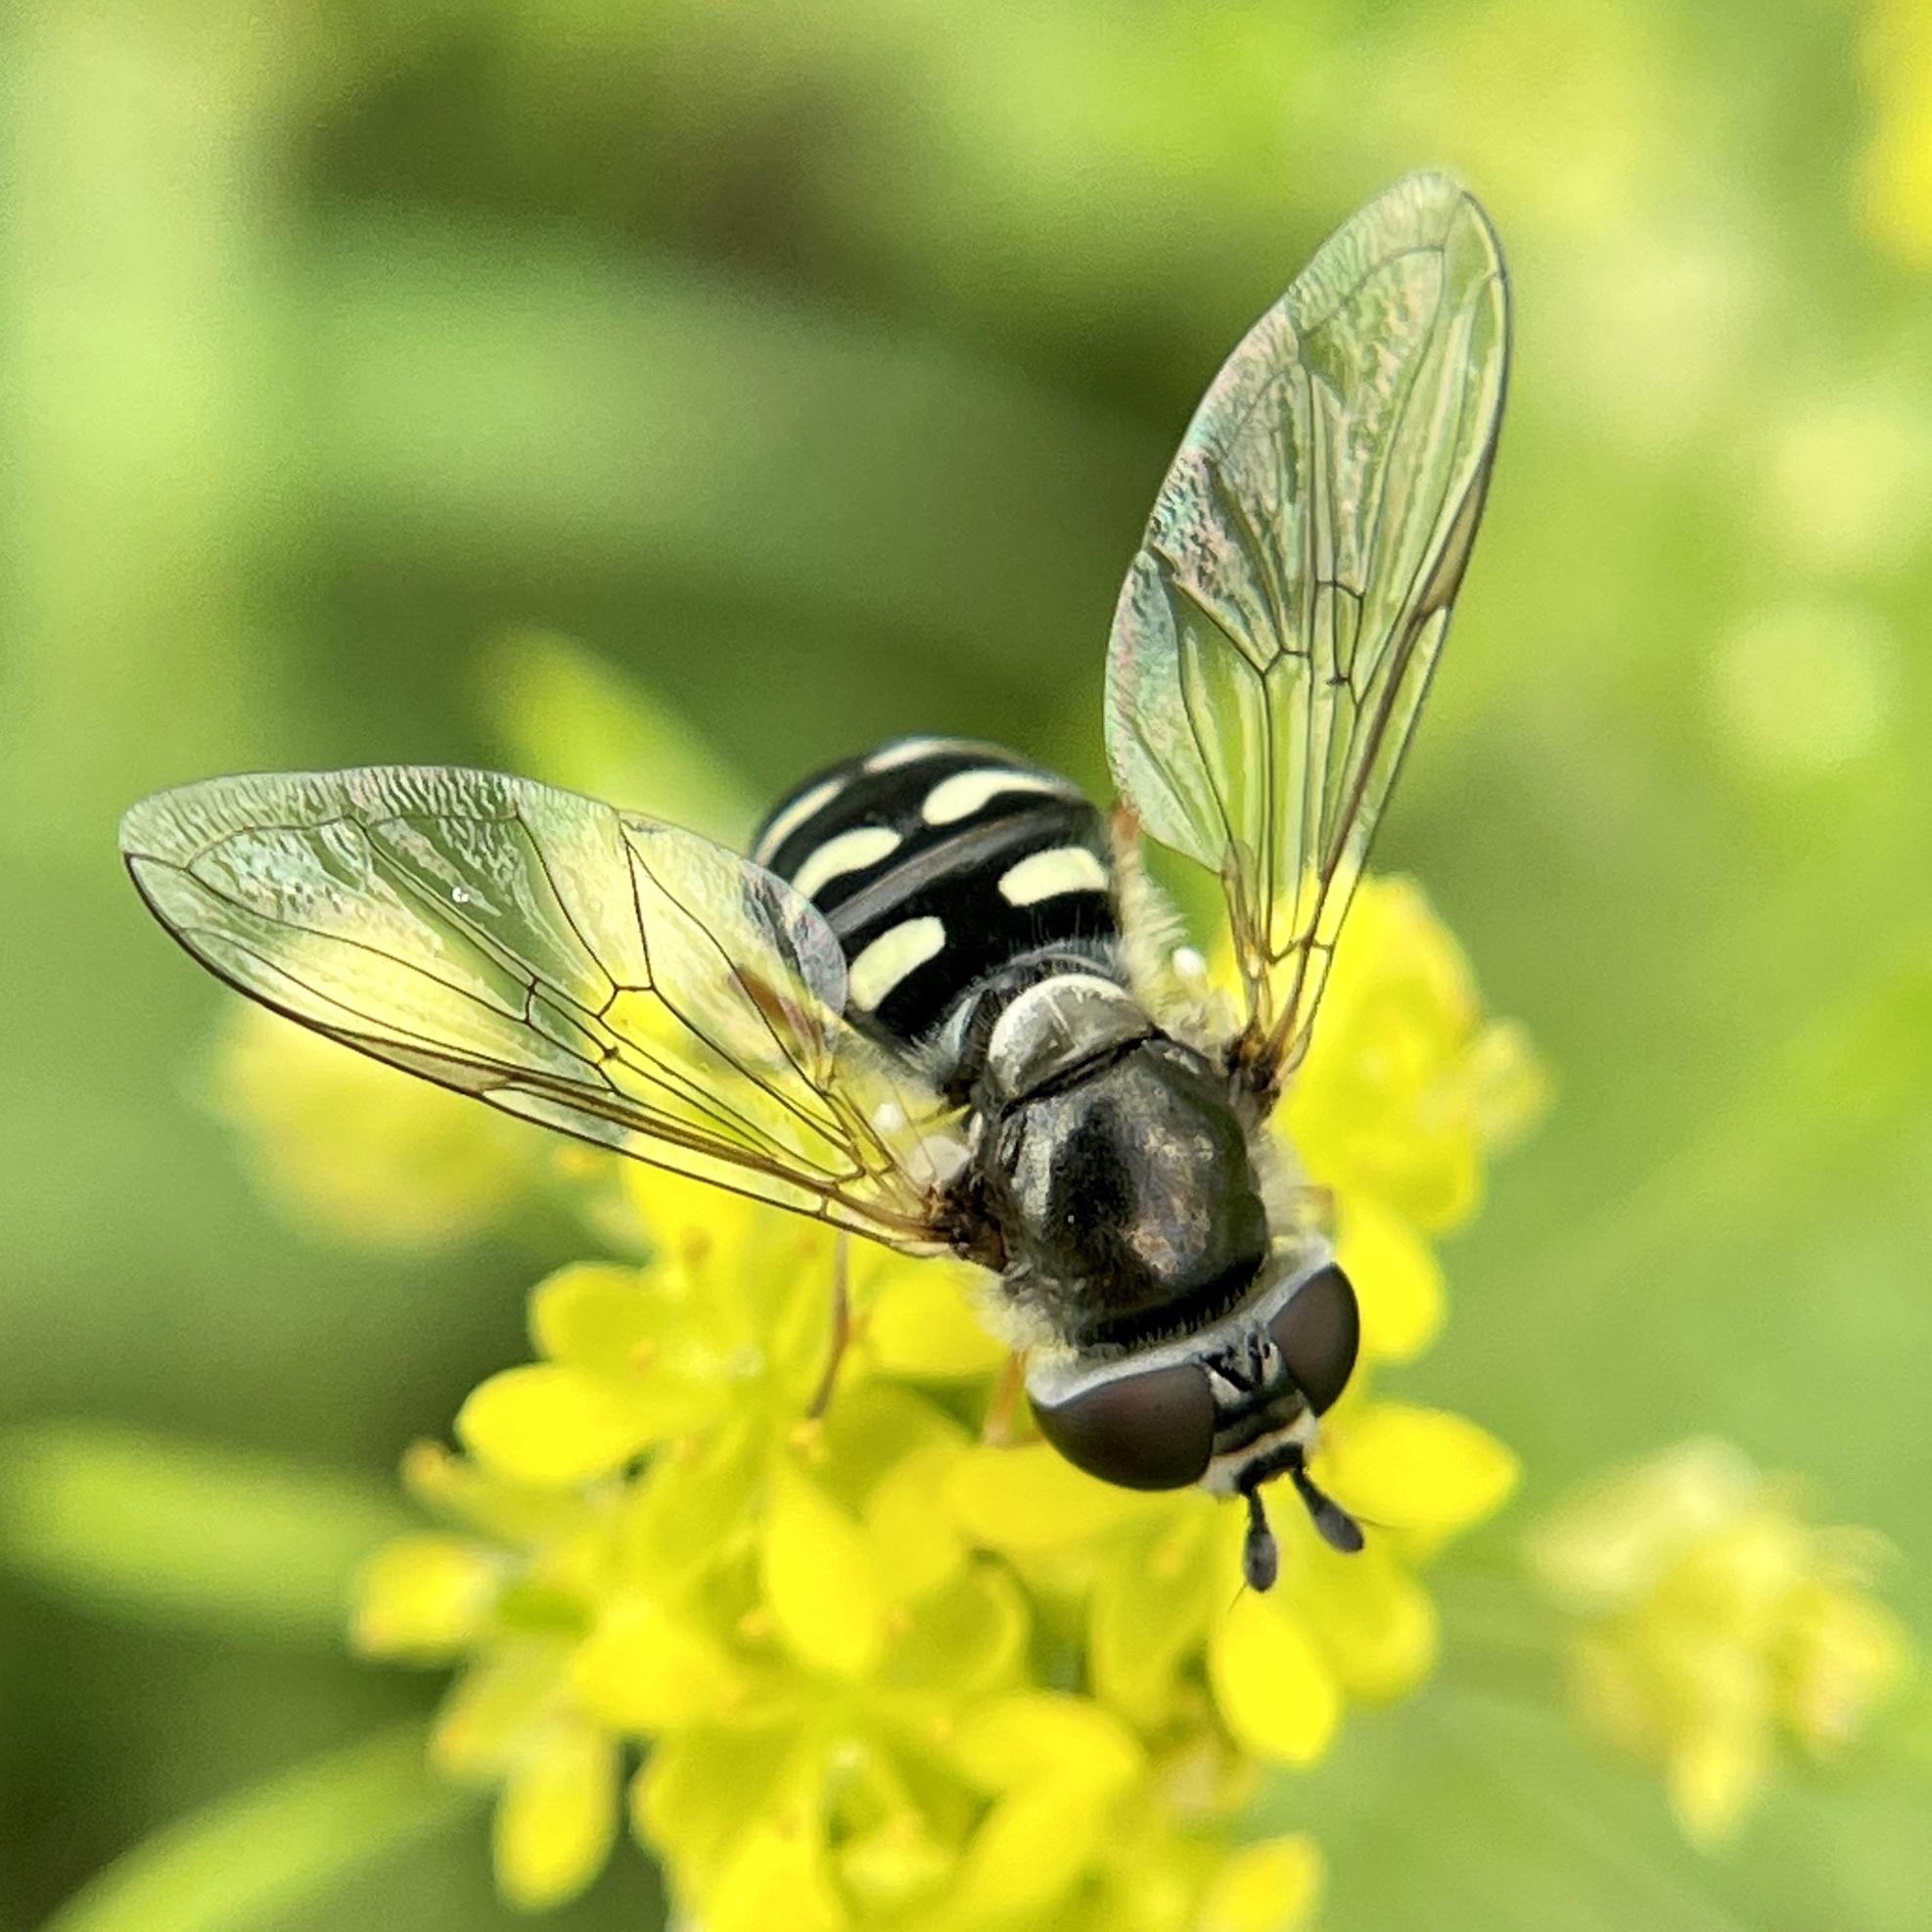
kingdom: Animalia
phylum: Arthropoda
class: Insecta
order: Diptera
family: Syrphidae
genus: Eupeodes
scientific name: Eupeodes volucris
